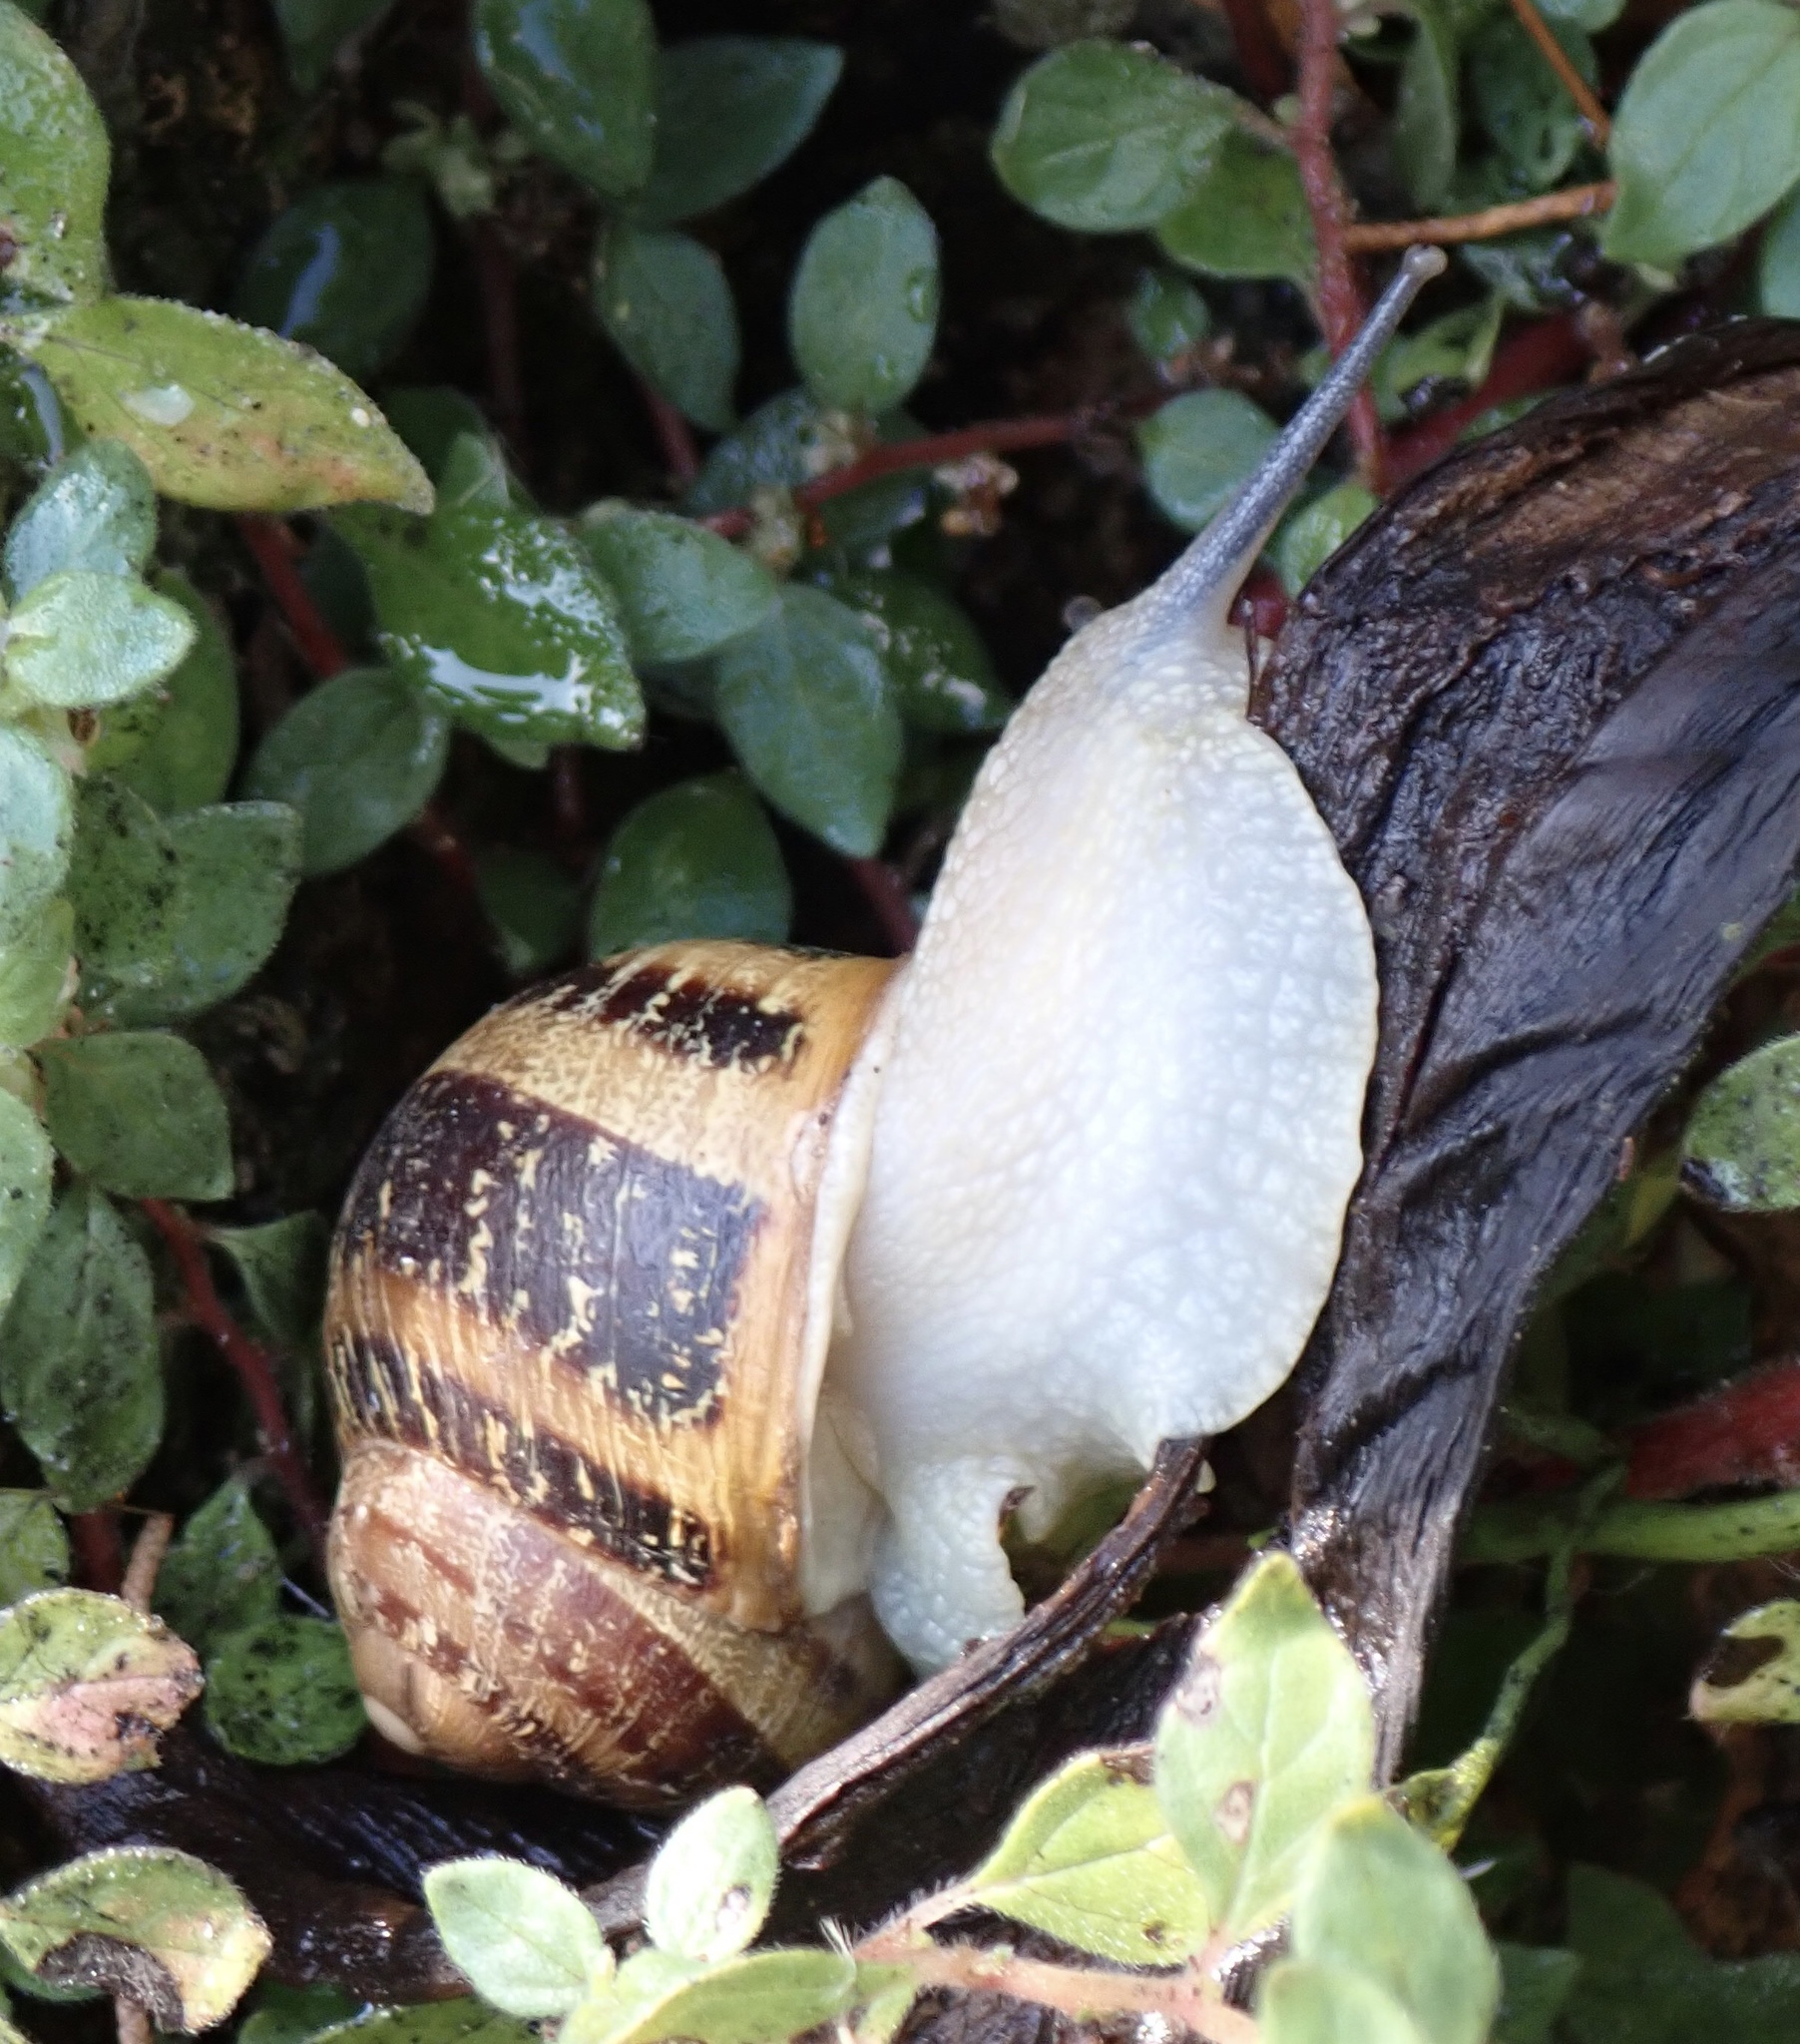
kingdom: Animalia
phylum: Mollusca
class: Gastropoda
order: Stylommatophora
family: Helicidae
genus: Cornu
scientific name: Cornu aspersum
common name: Brown garden snail
